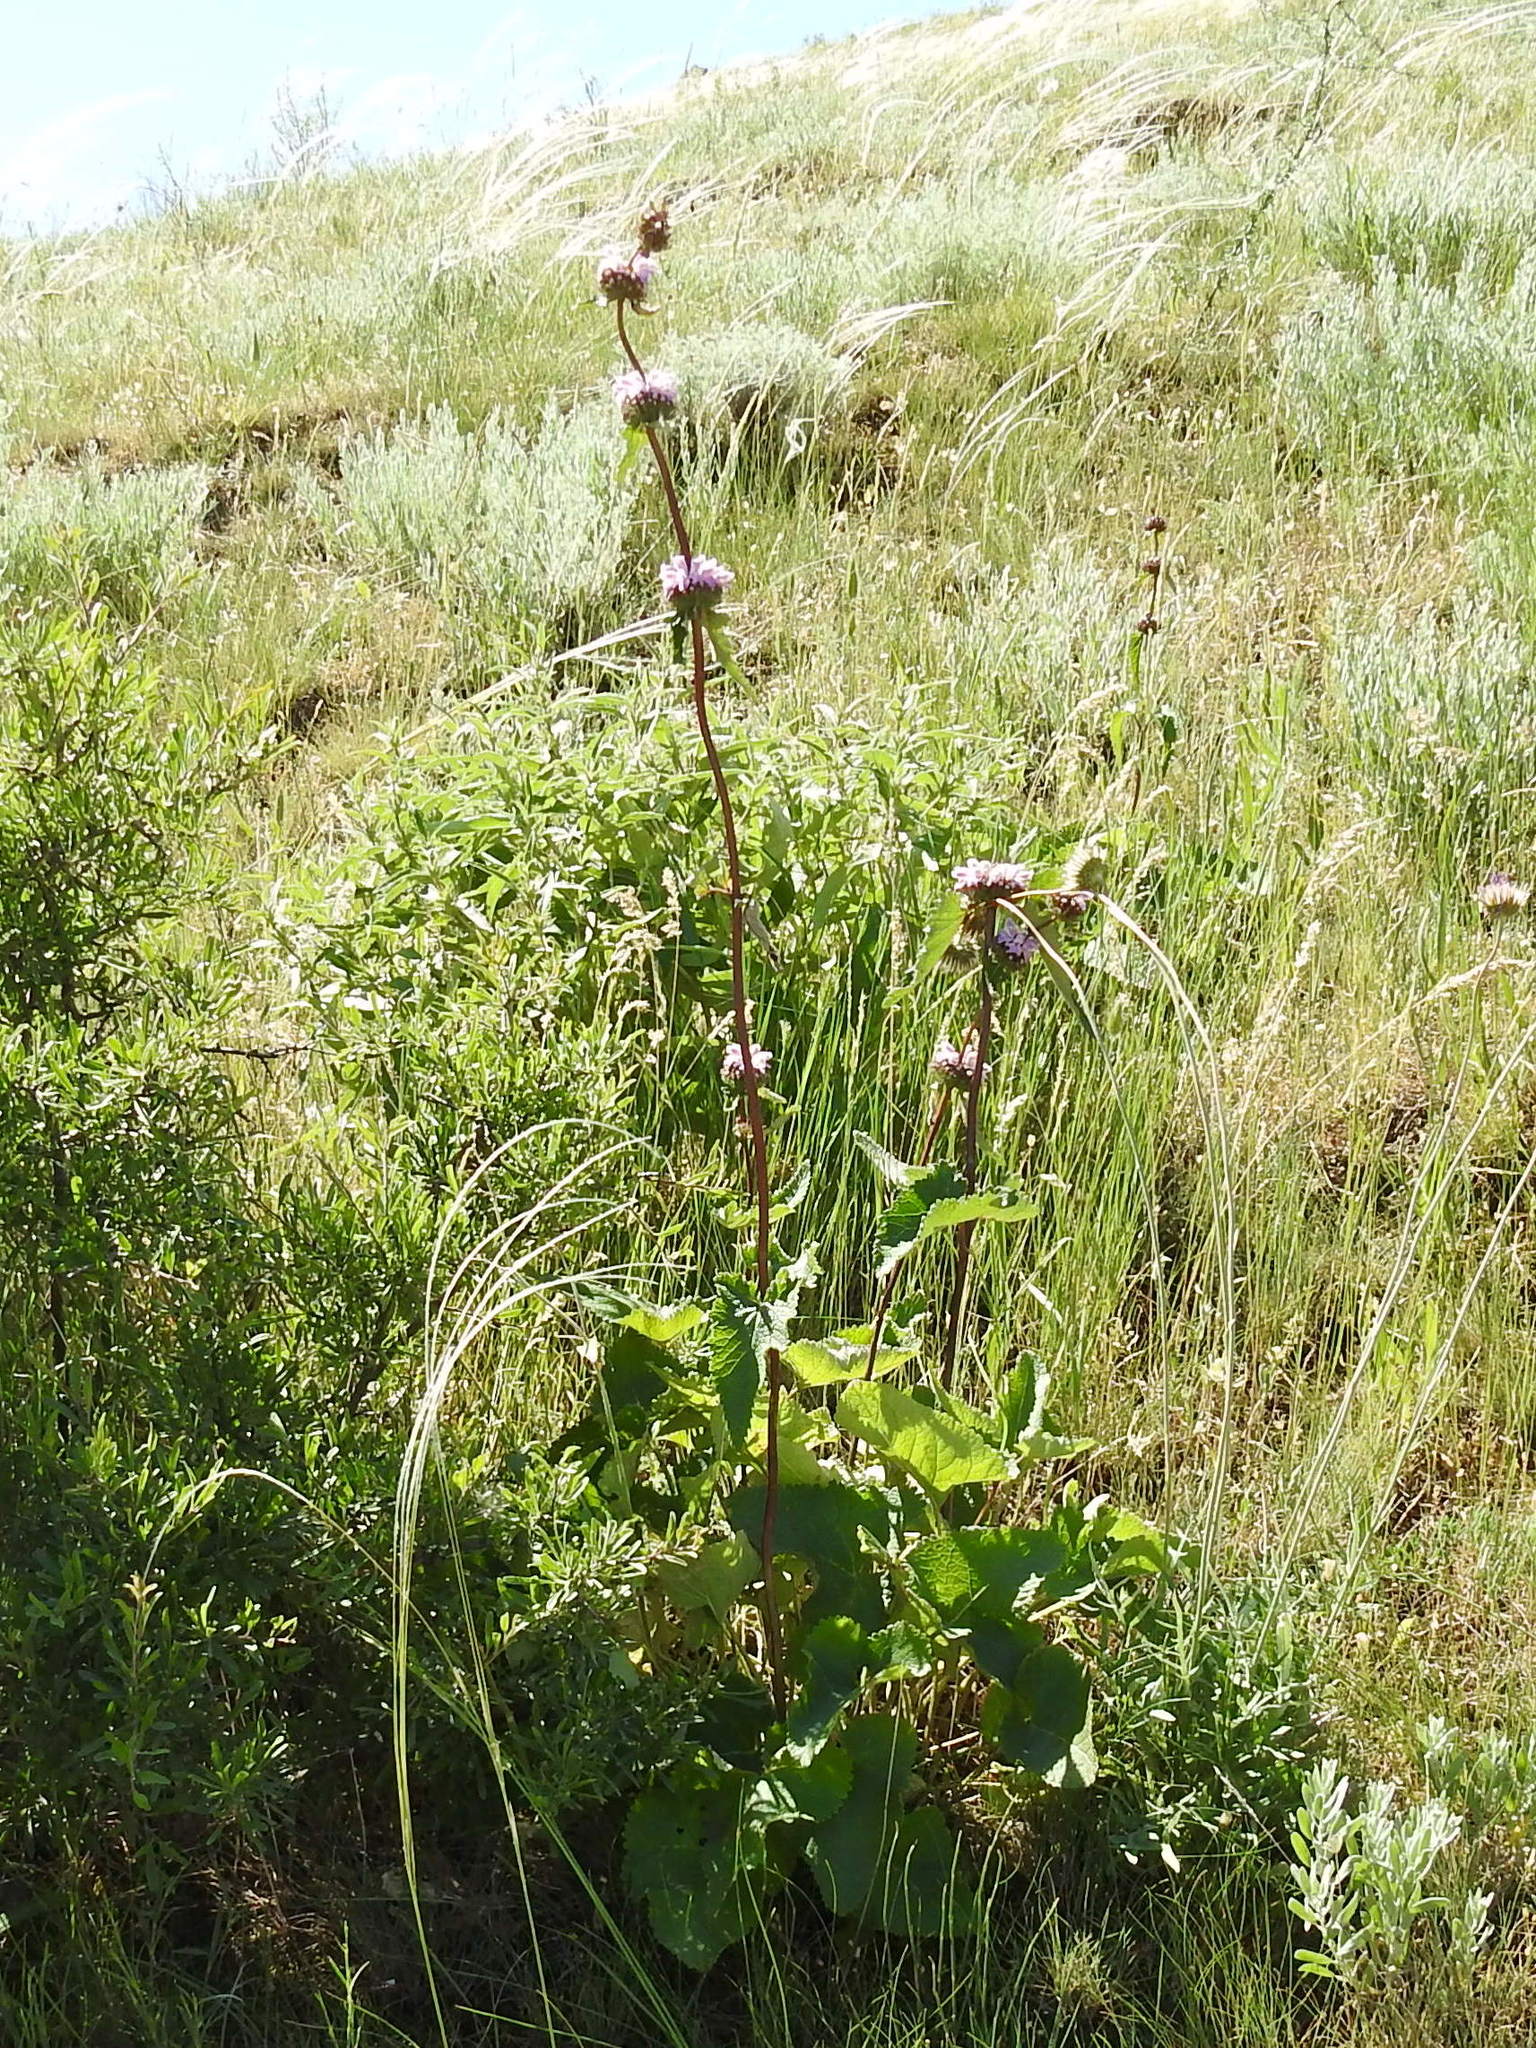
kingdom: Plantae
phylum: Tracheophyta
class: Magnoliopsida
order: Lamiales
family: Lamiaceae
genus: Phlomoides
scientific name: Phlomoides tuberosa
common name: Tuberous jerusalem sage
